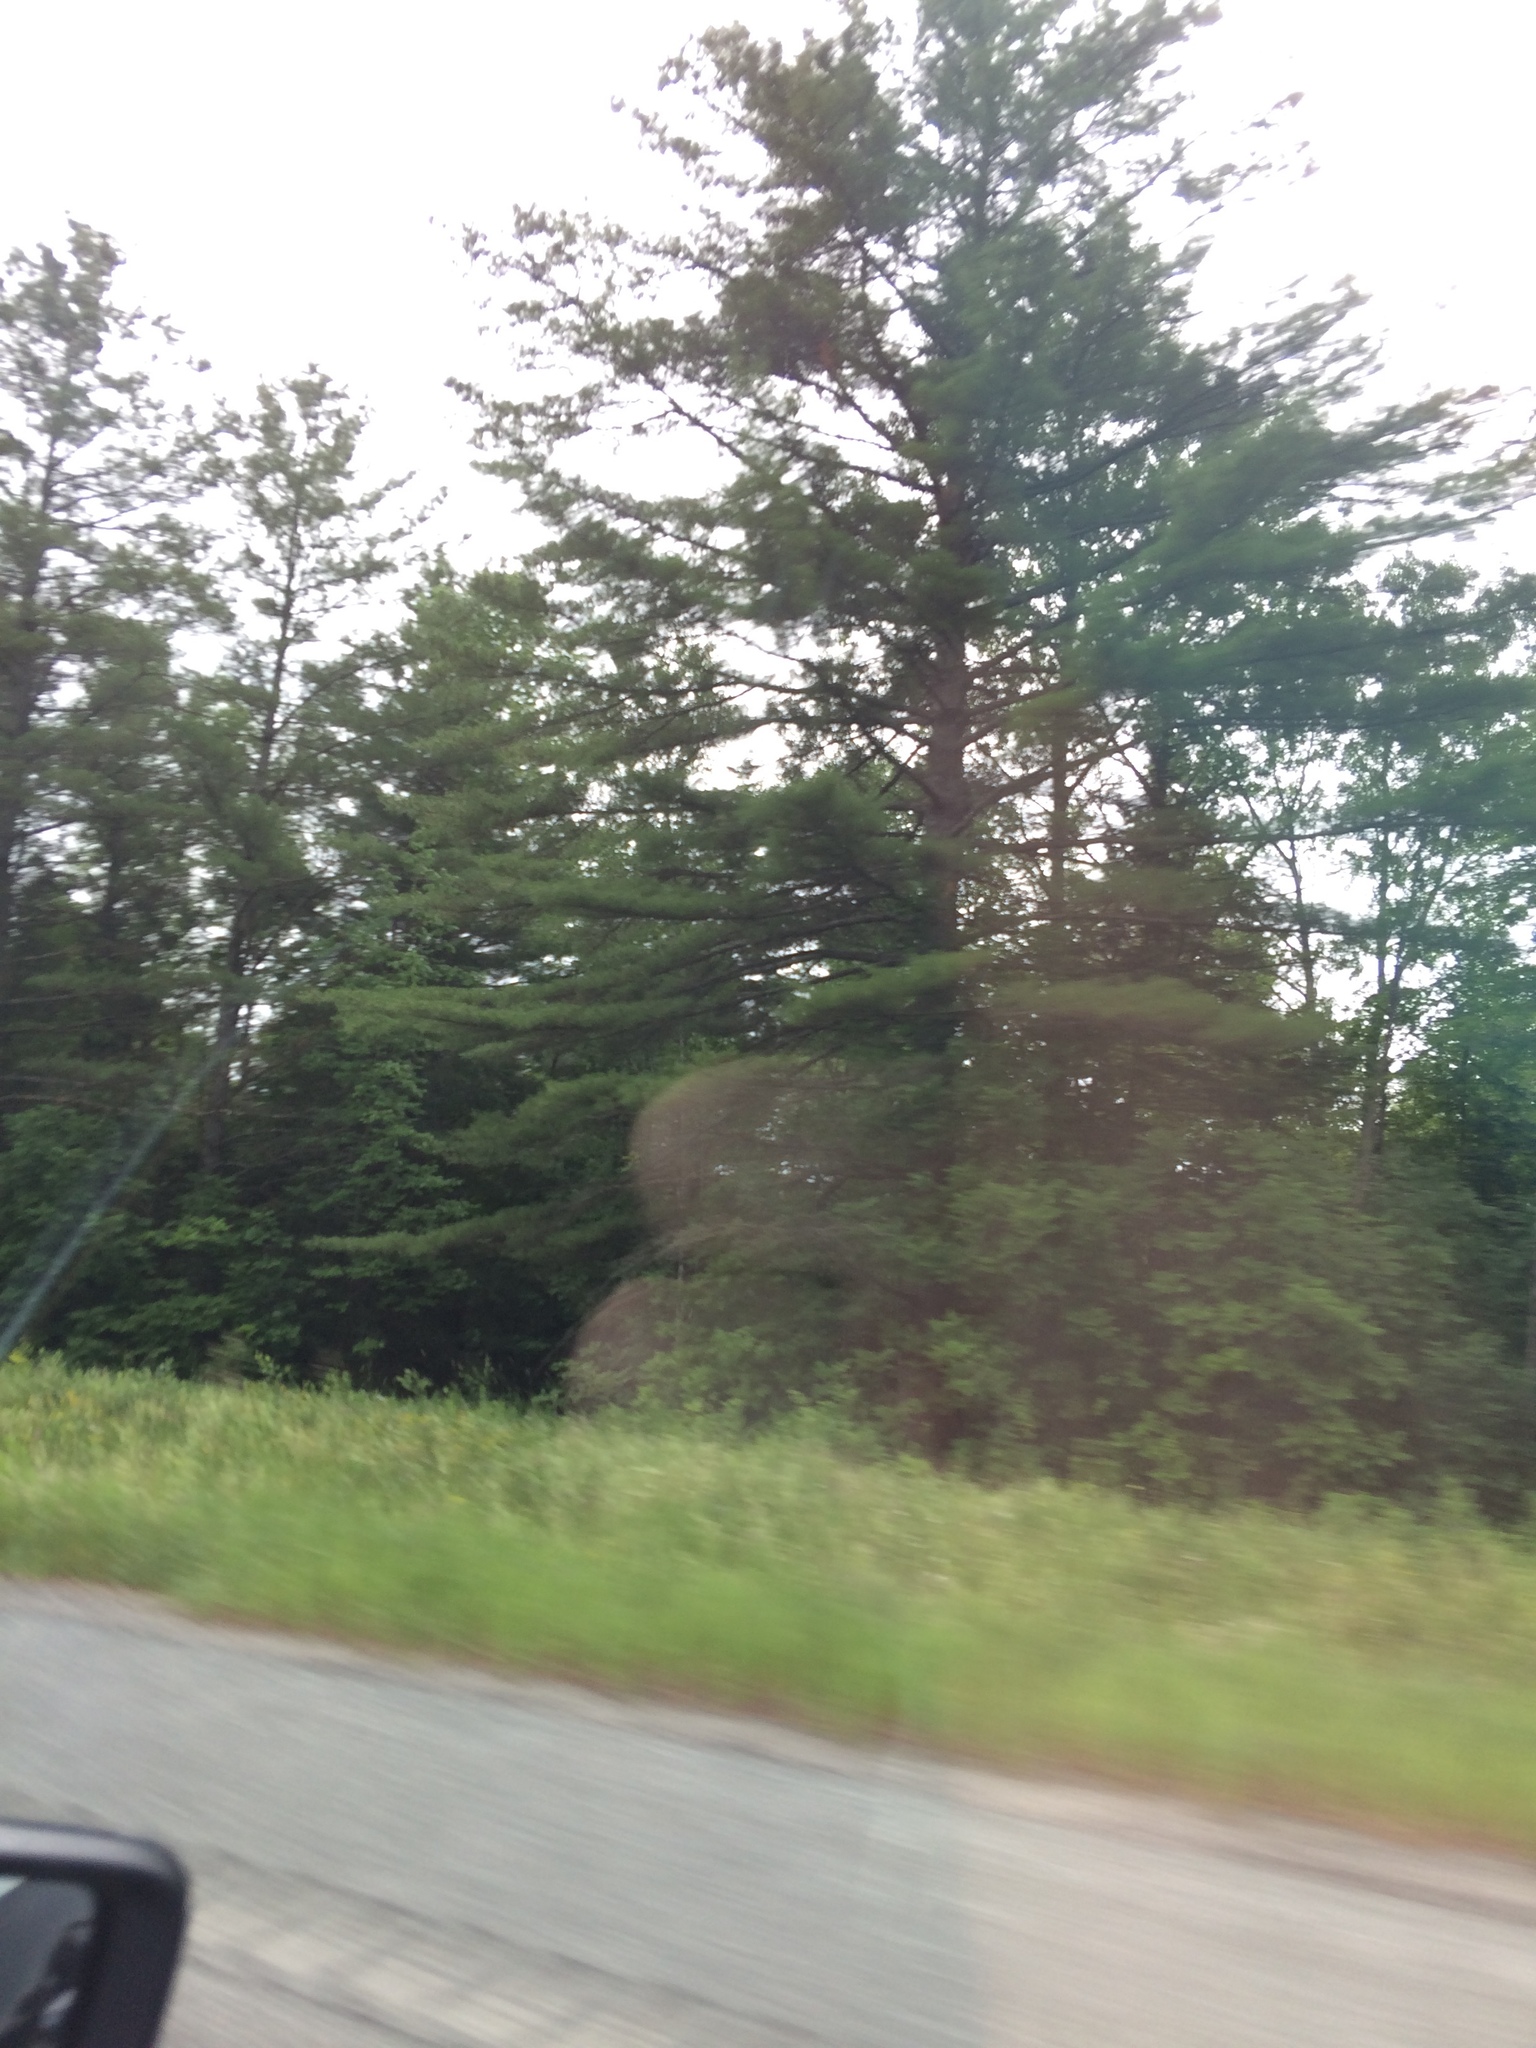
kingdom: Plantae
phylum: Tracheophyta
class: Pinopsida
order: Pinales
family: Pinaceae
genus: Pinus
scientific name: Pinus strobus
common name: Weymouth pine
